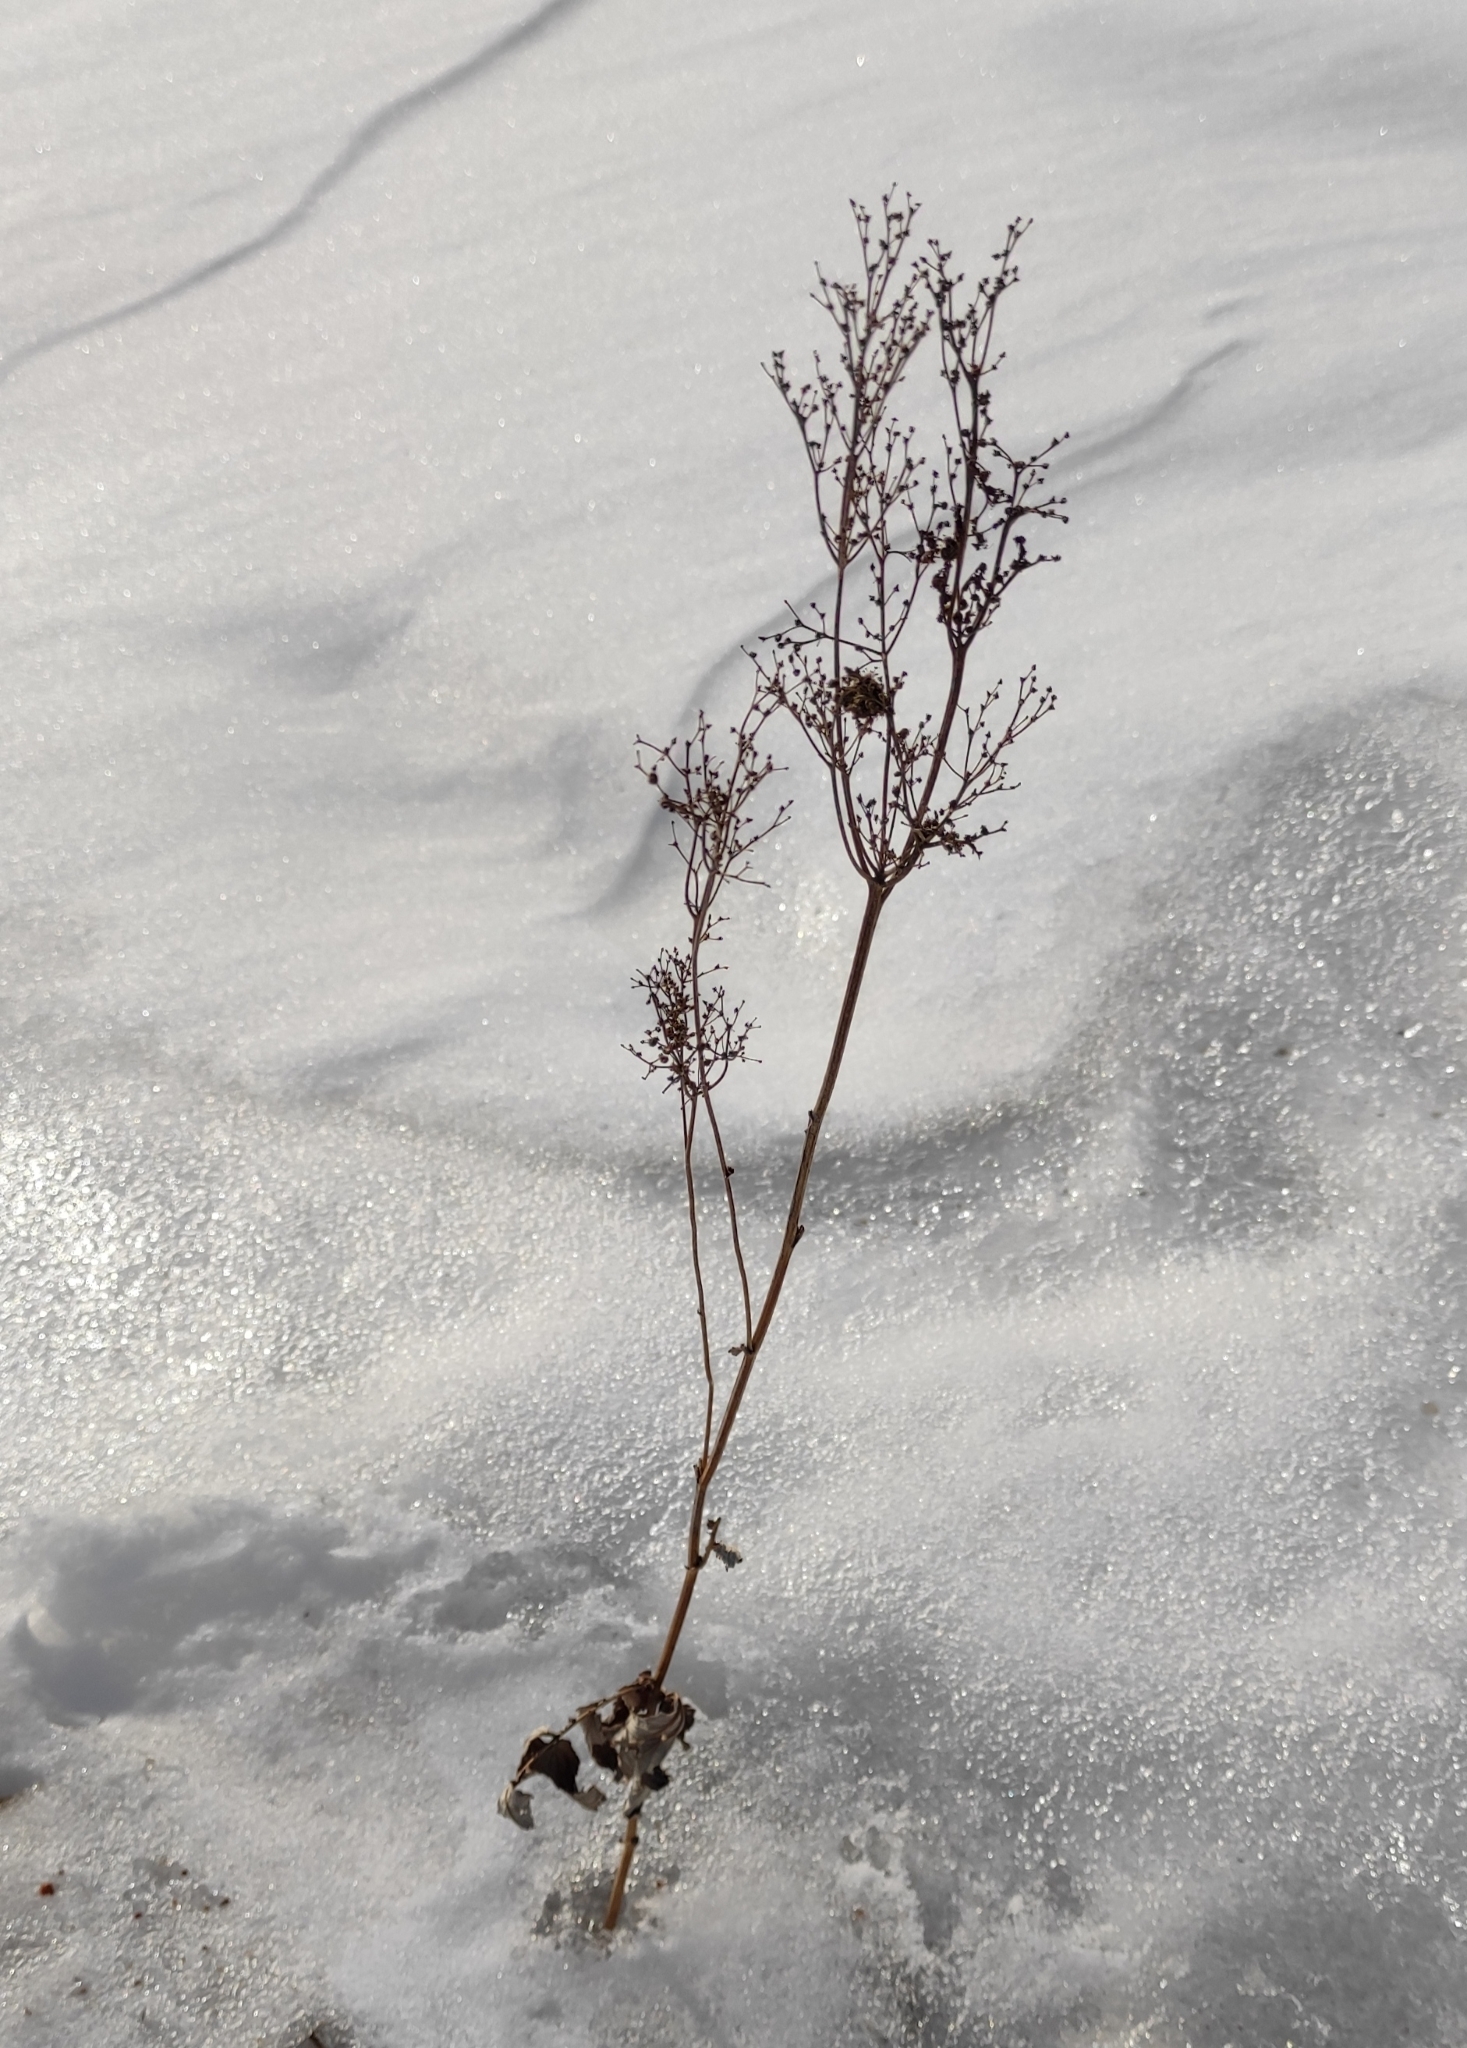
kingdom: Plantae
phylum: Tracheophyta
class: Magnoliopsida
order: Rosales
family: Rosaceae
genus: Filipendula
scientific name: Filipendula ulmaria
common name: Meadowsweet
